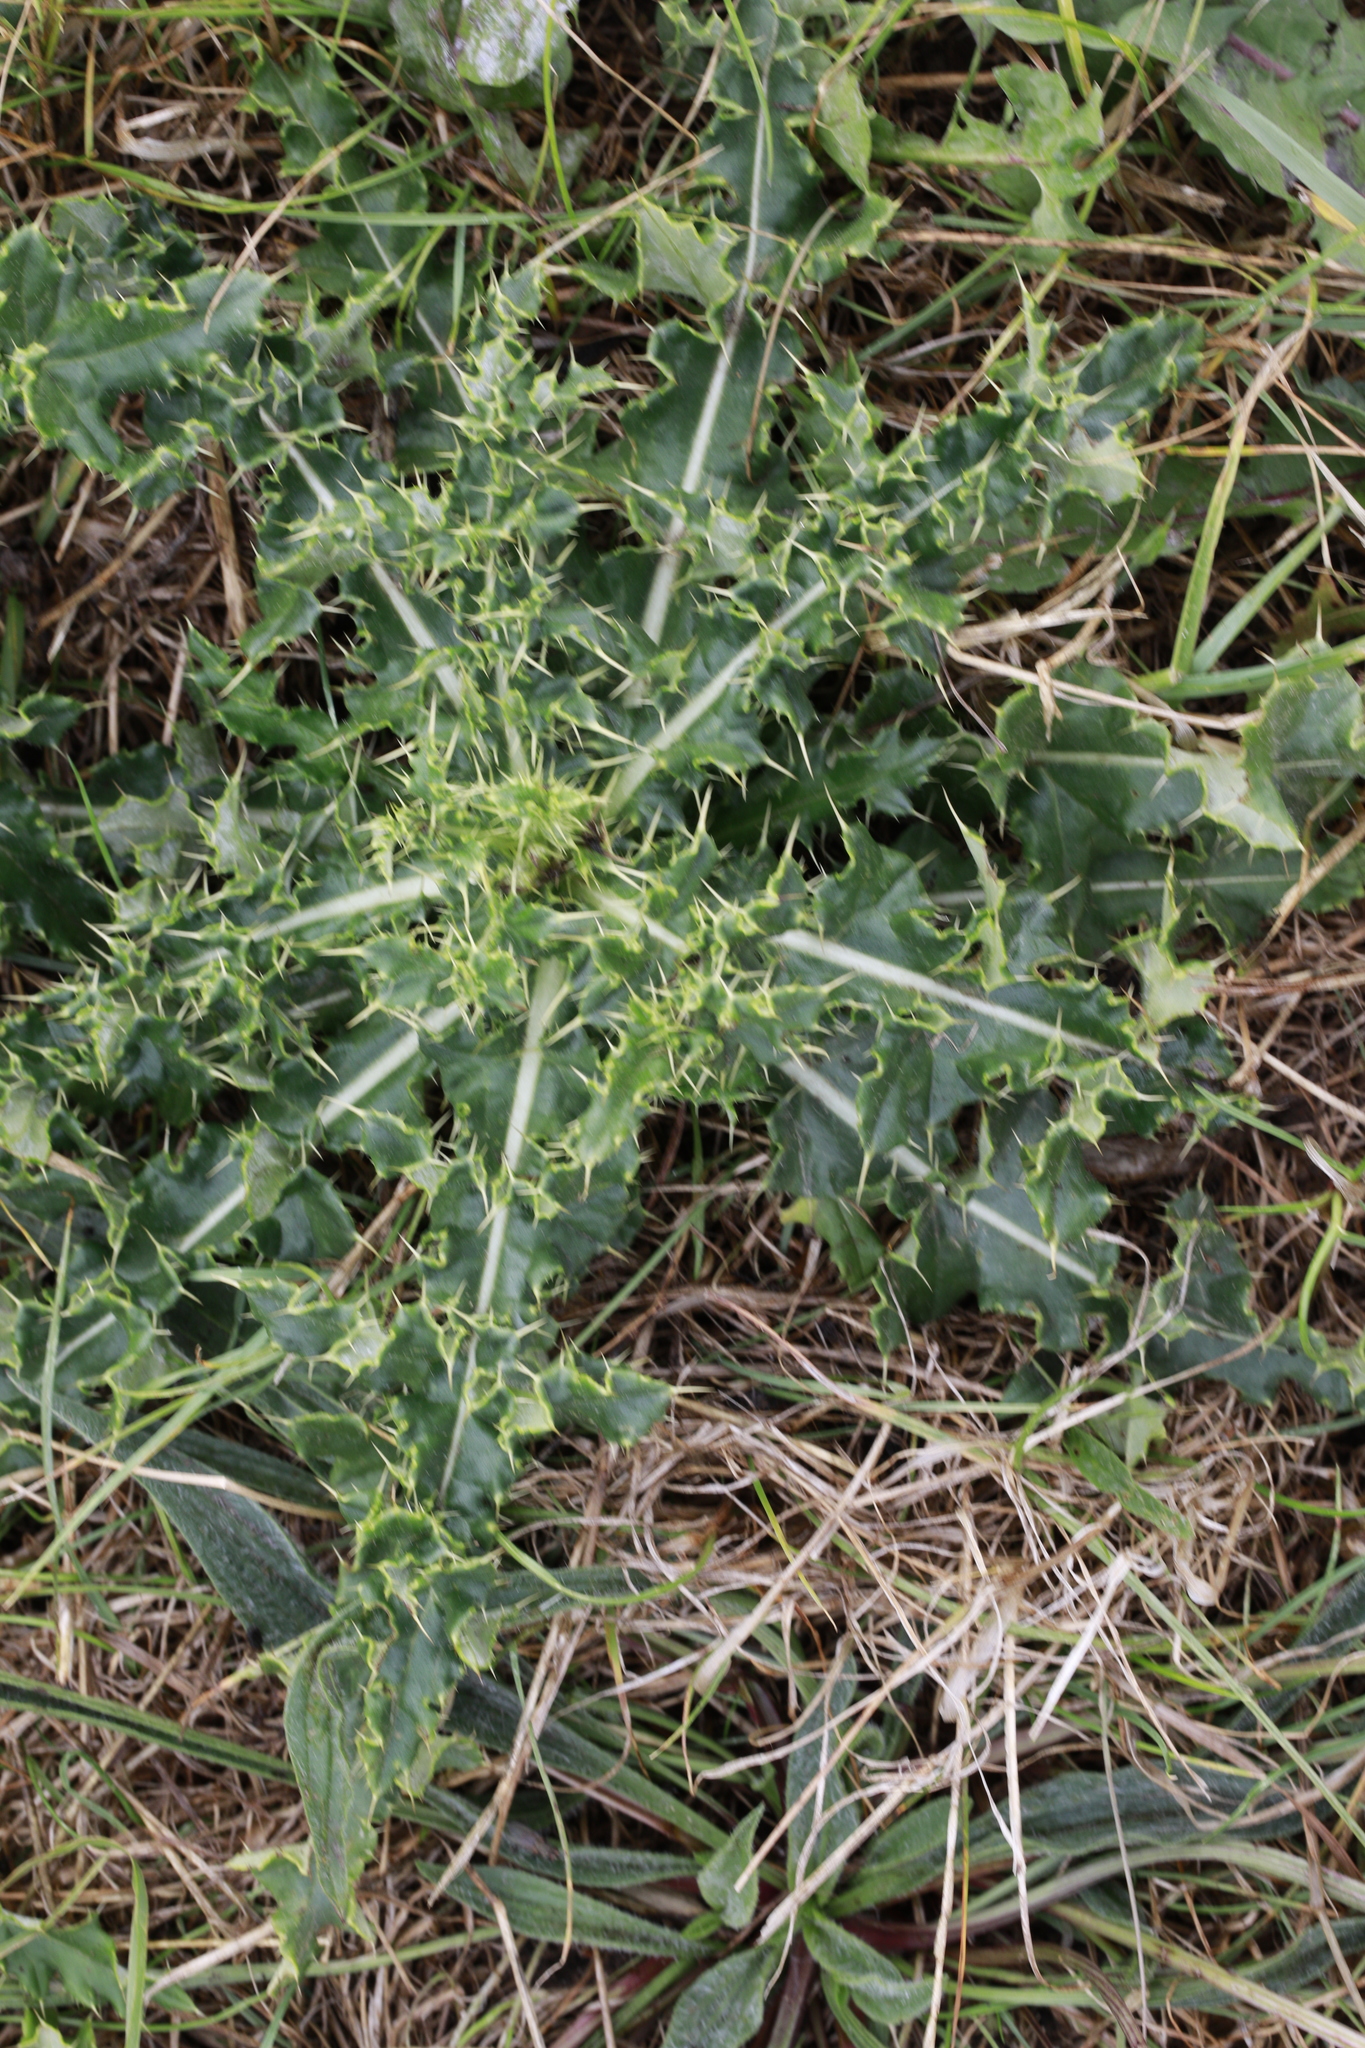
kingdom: Plantae
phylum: Tracheophyta
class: Magnoliopsida
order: Asterales
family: Asteraceae
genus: Cirsium
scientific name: Cirsium arvense
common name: Creeping thistle
